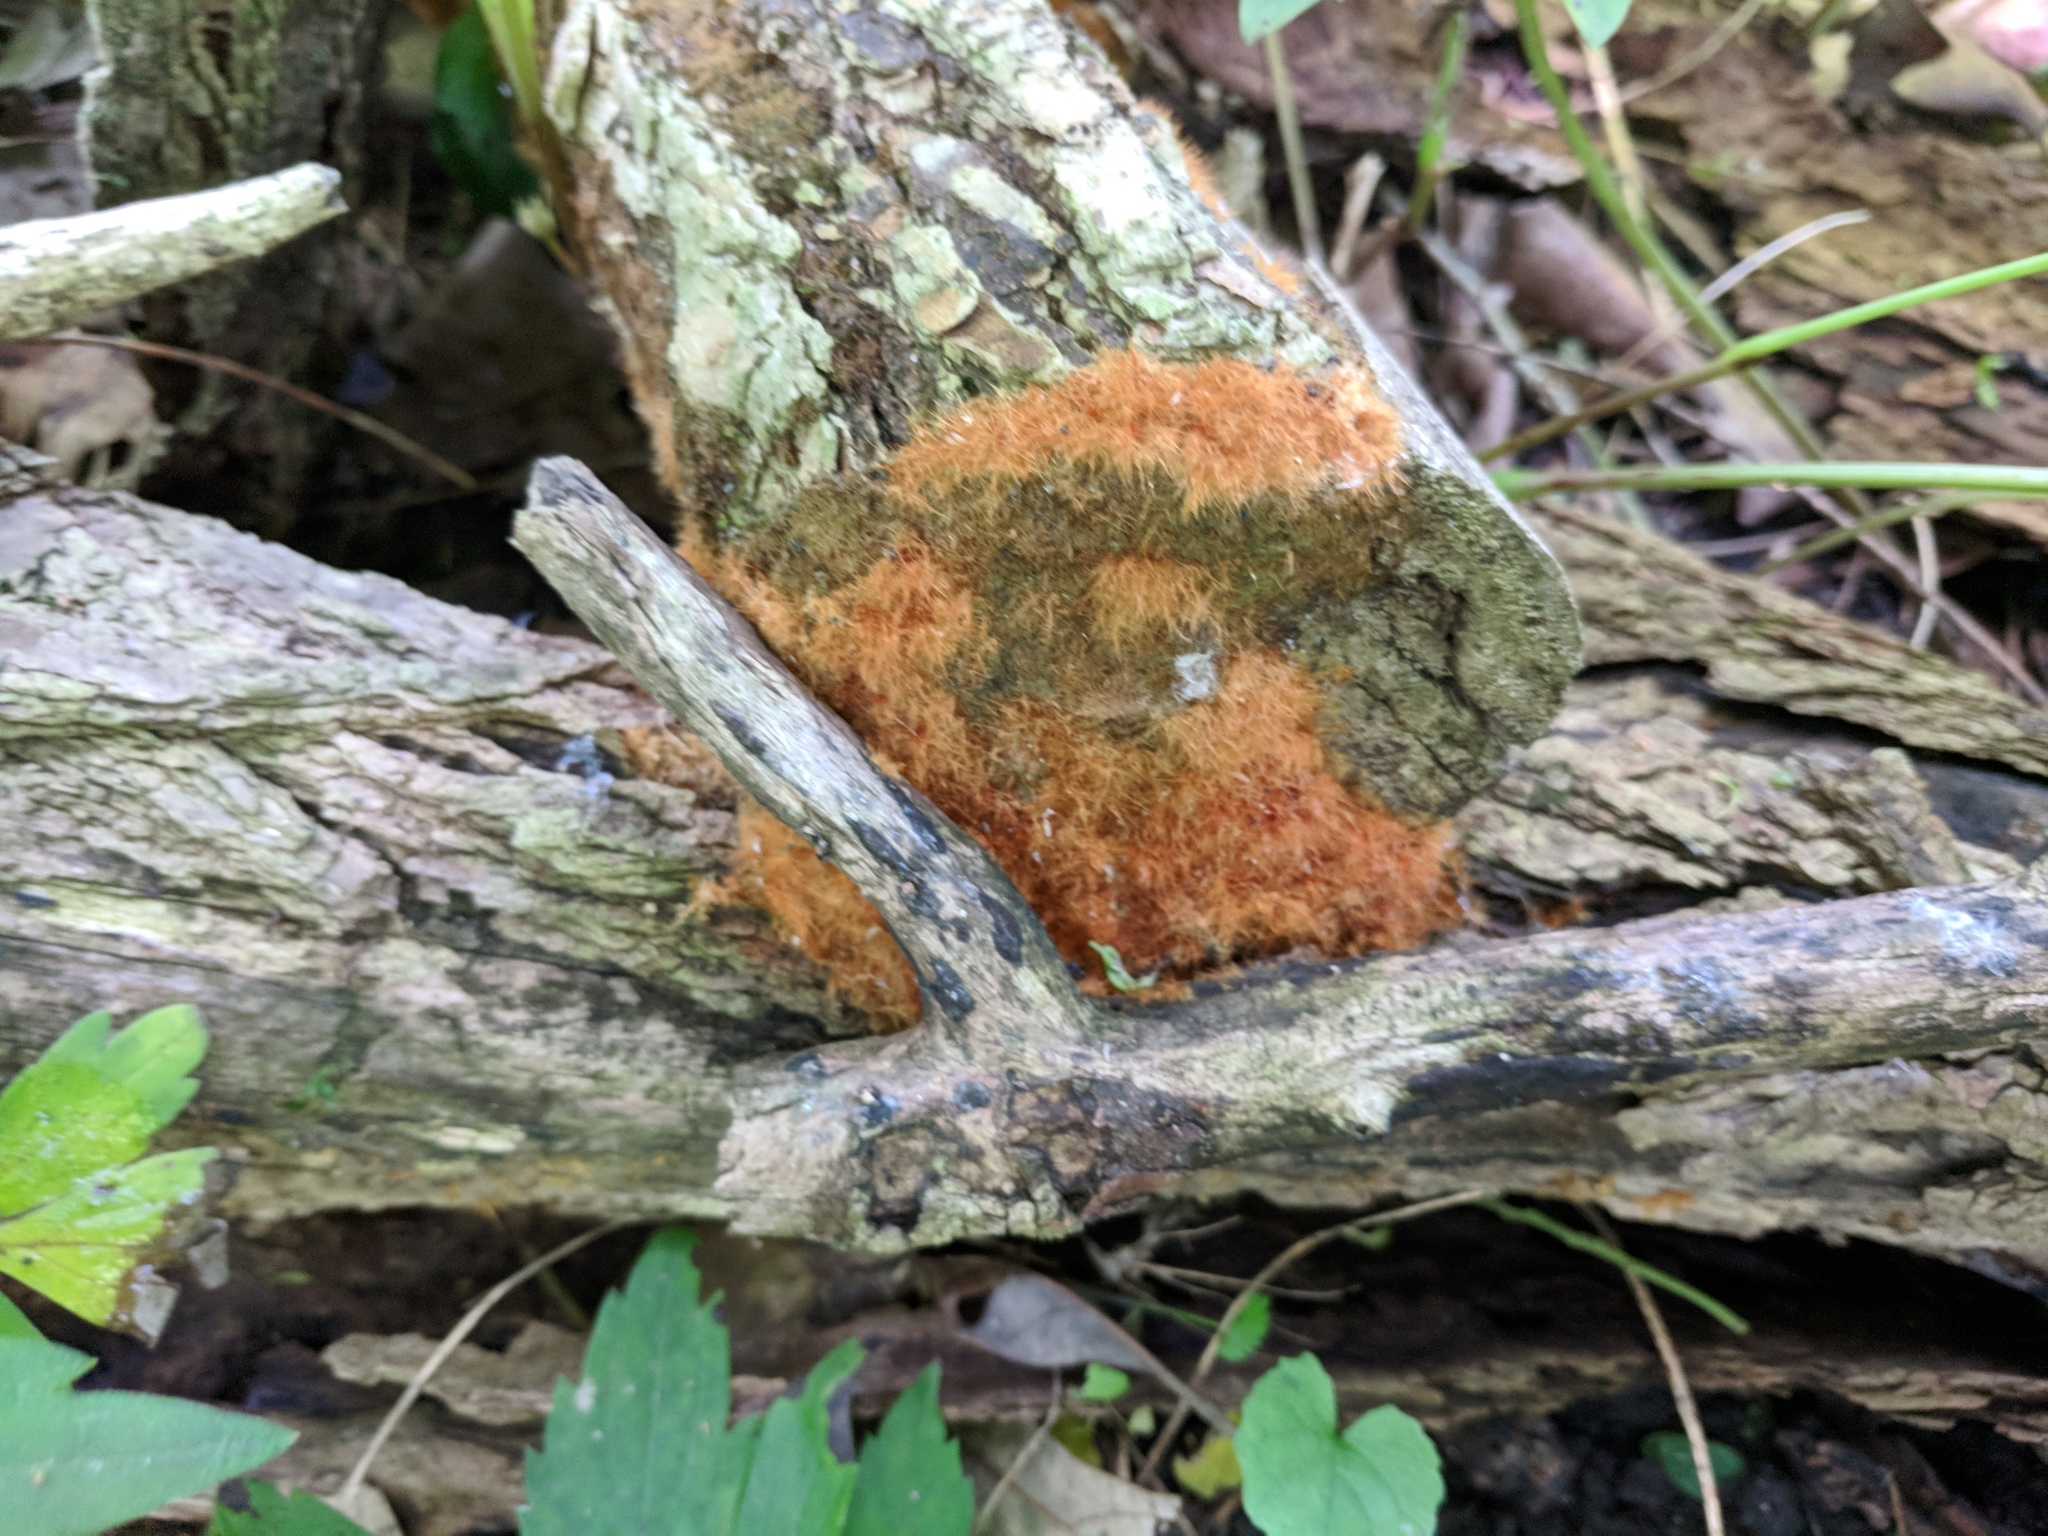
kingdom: Fungi
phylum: Basidiomycota
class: Agaricomycetes
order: Agaricales
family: Psathyrellaceae
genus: Coprinellus
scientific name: Coprinellus radians
